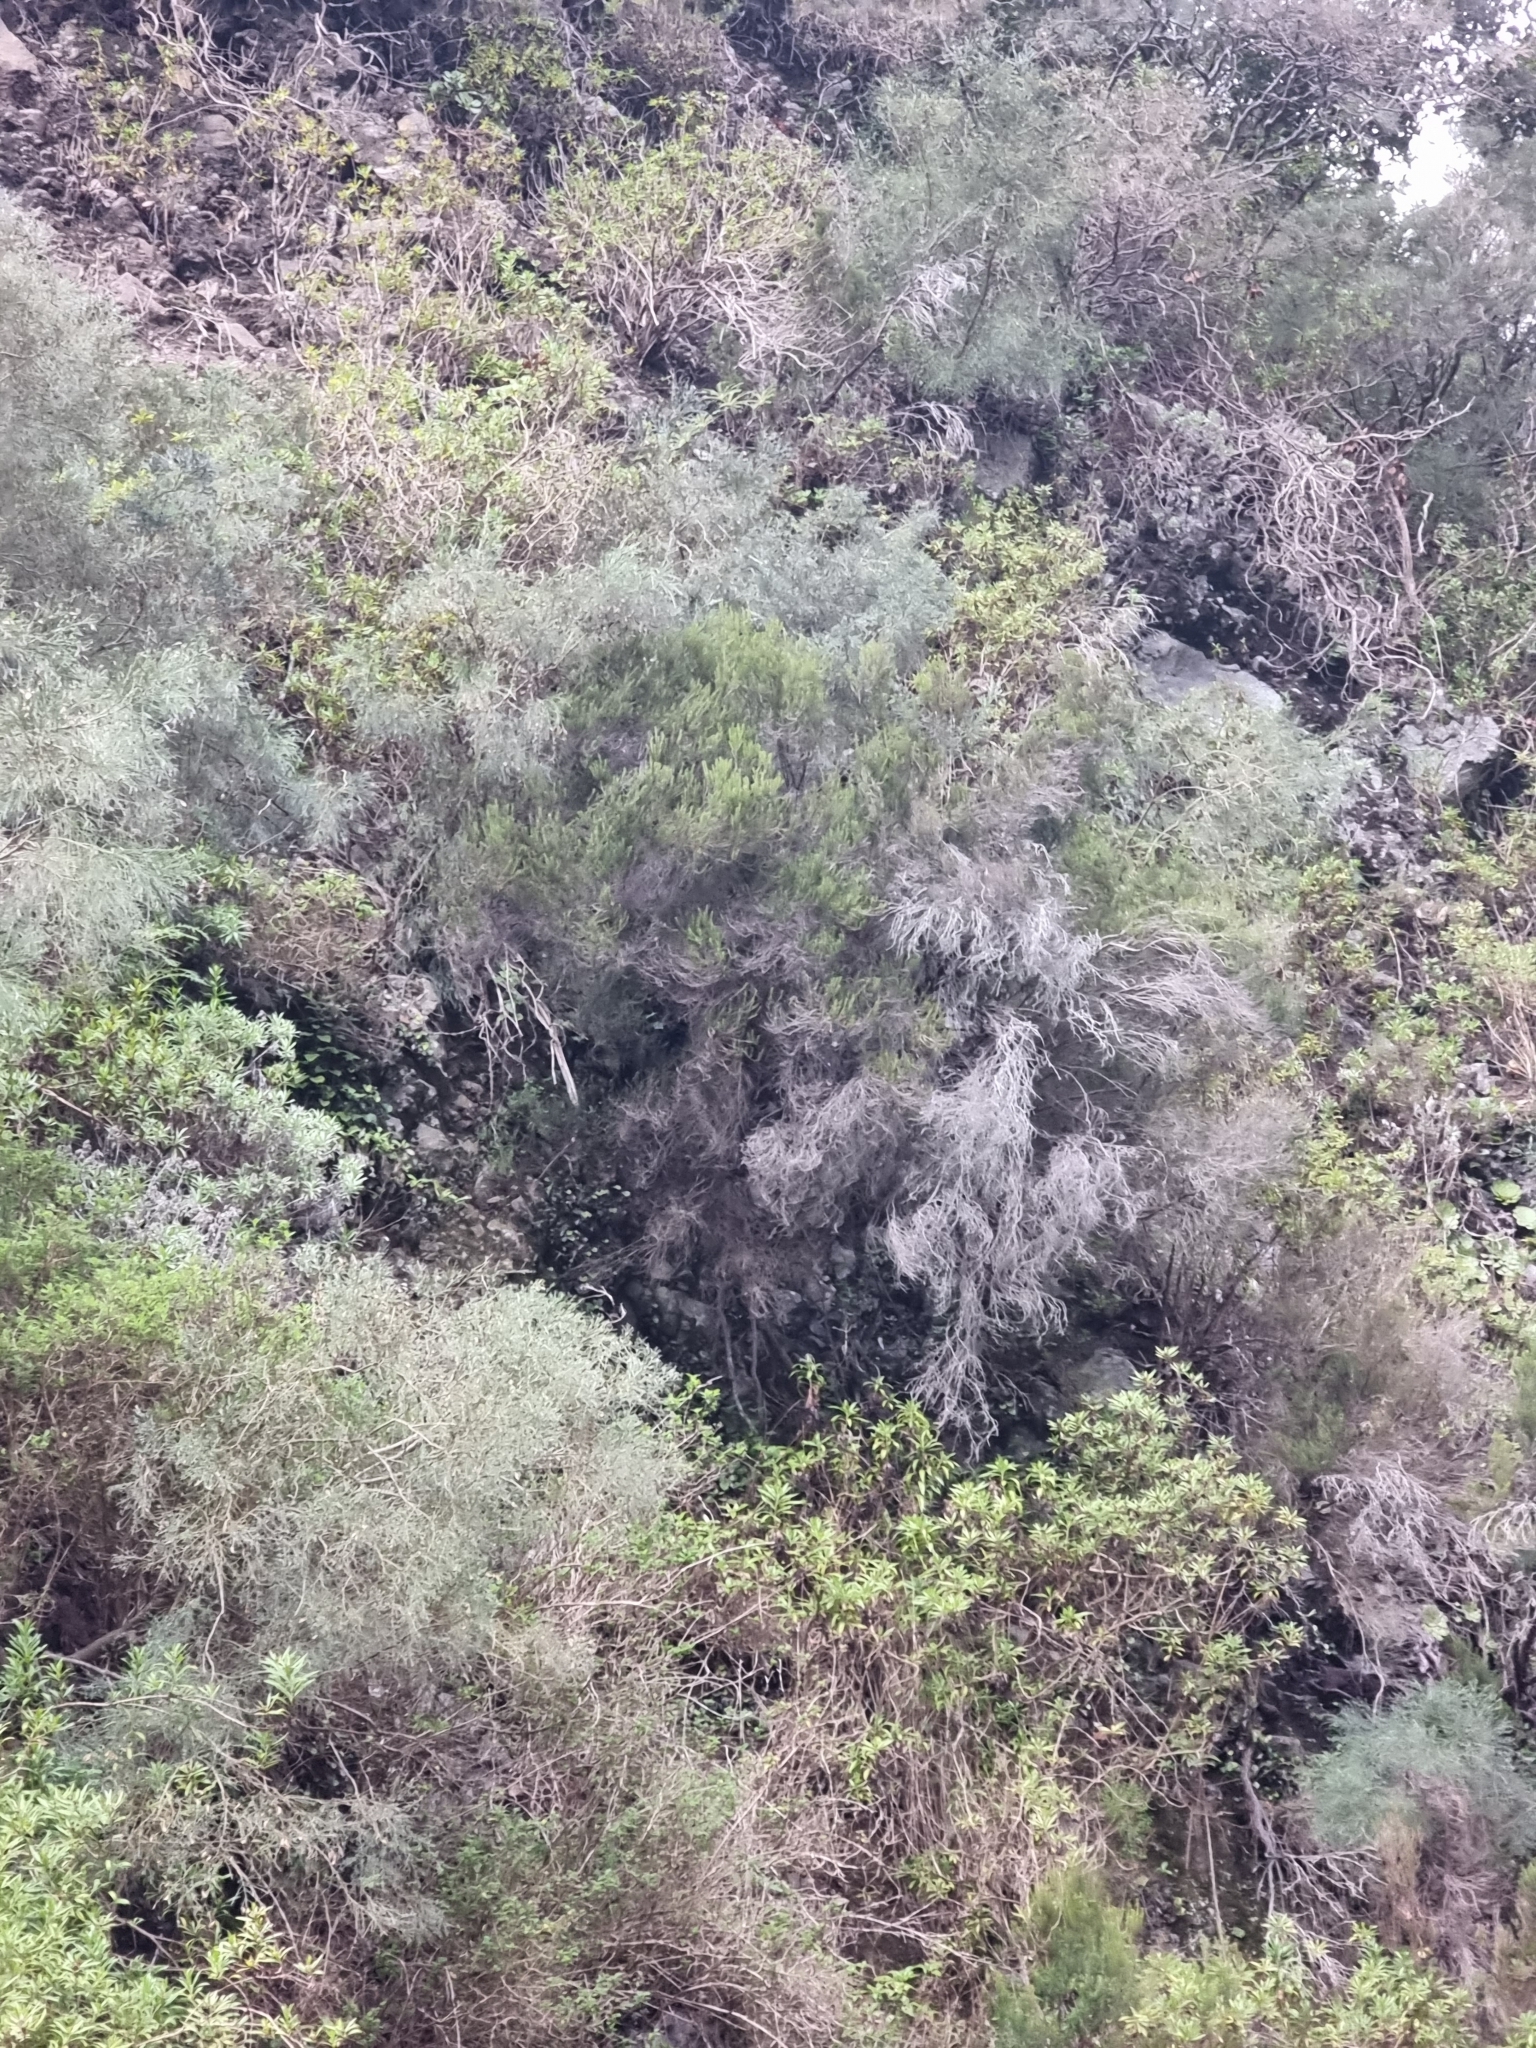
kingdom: Plantae
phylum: Tracheophyta
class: Magnoliopsida
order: Ericales
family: Ericaceae
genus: Erica
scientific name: Erica platycodon
